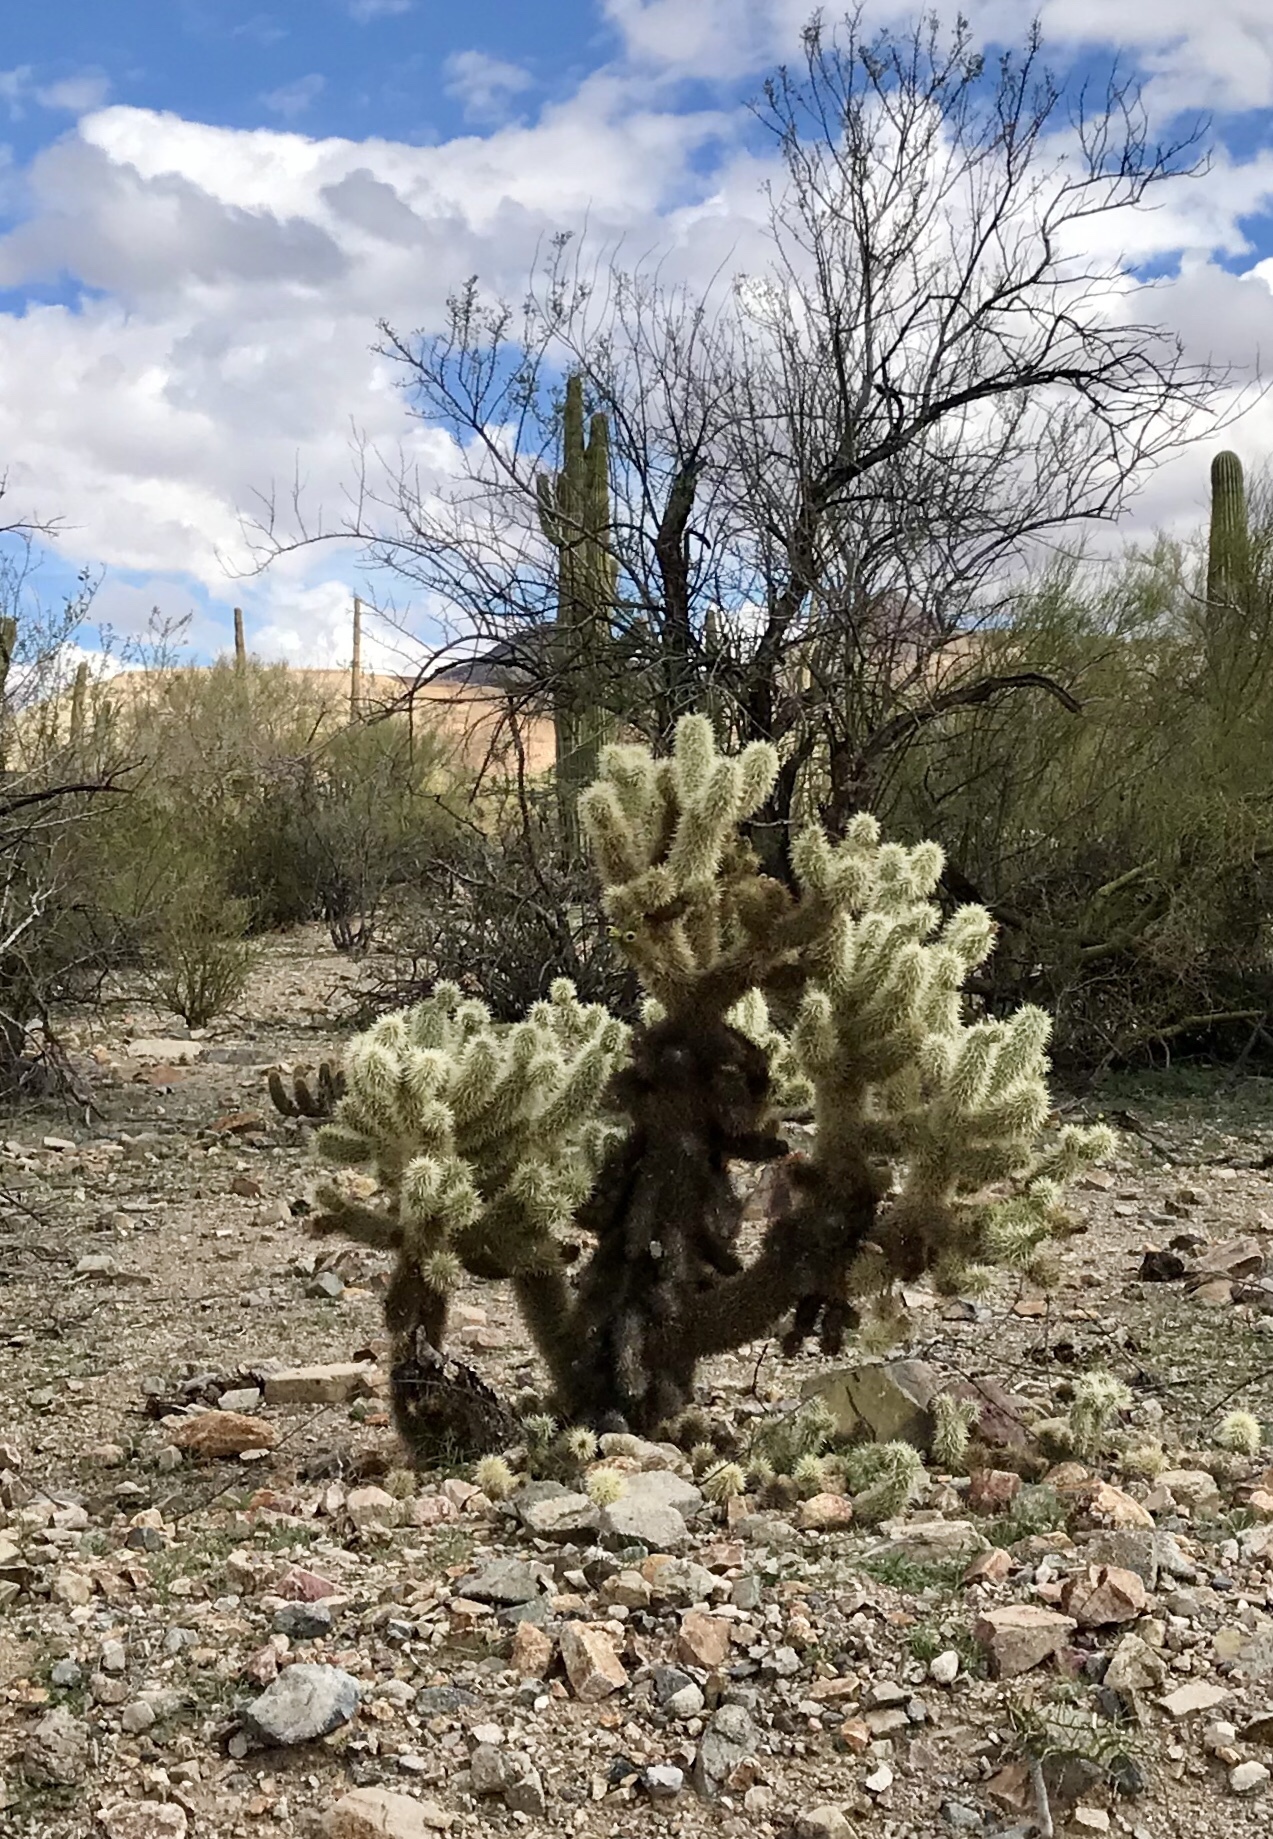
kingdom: Plantae
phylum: Tracheophyta
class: Magnoliopsida
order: Caryophyllales
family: Cactaceae
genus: Cylindropuntia
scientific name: Cylindropuntia fosbergii
